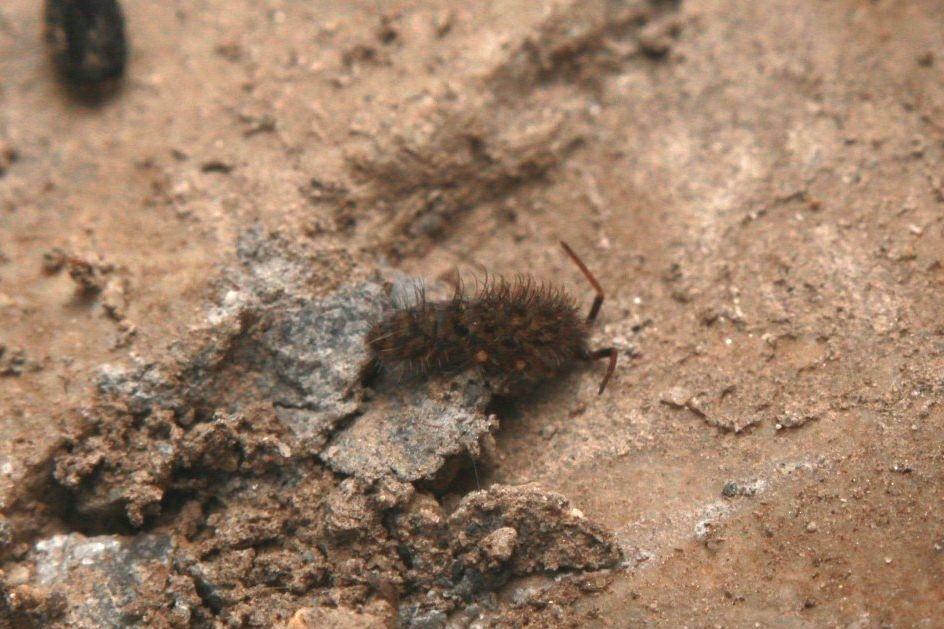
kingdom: Animalia
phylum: Arthropoda
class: Collembola
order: Entomobryomorpha
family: Orchesellidae
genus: Orchesella
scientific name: Orchesella villosa
